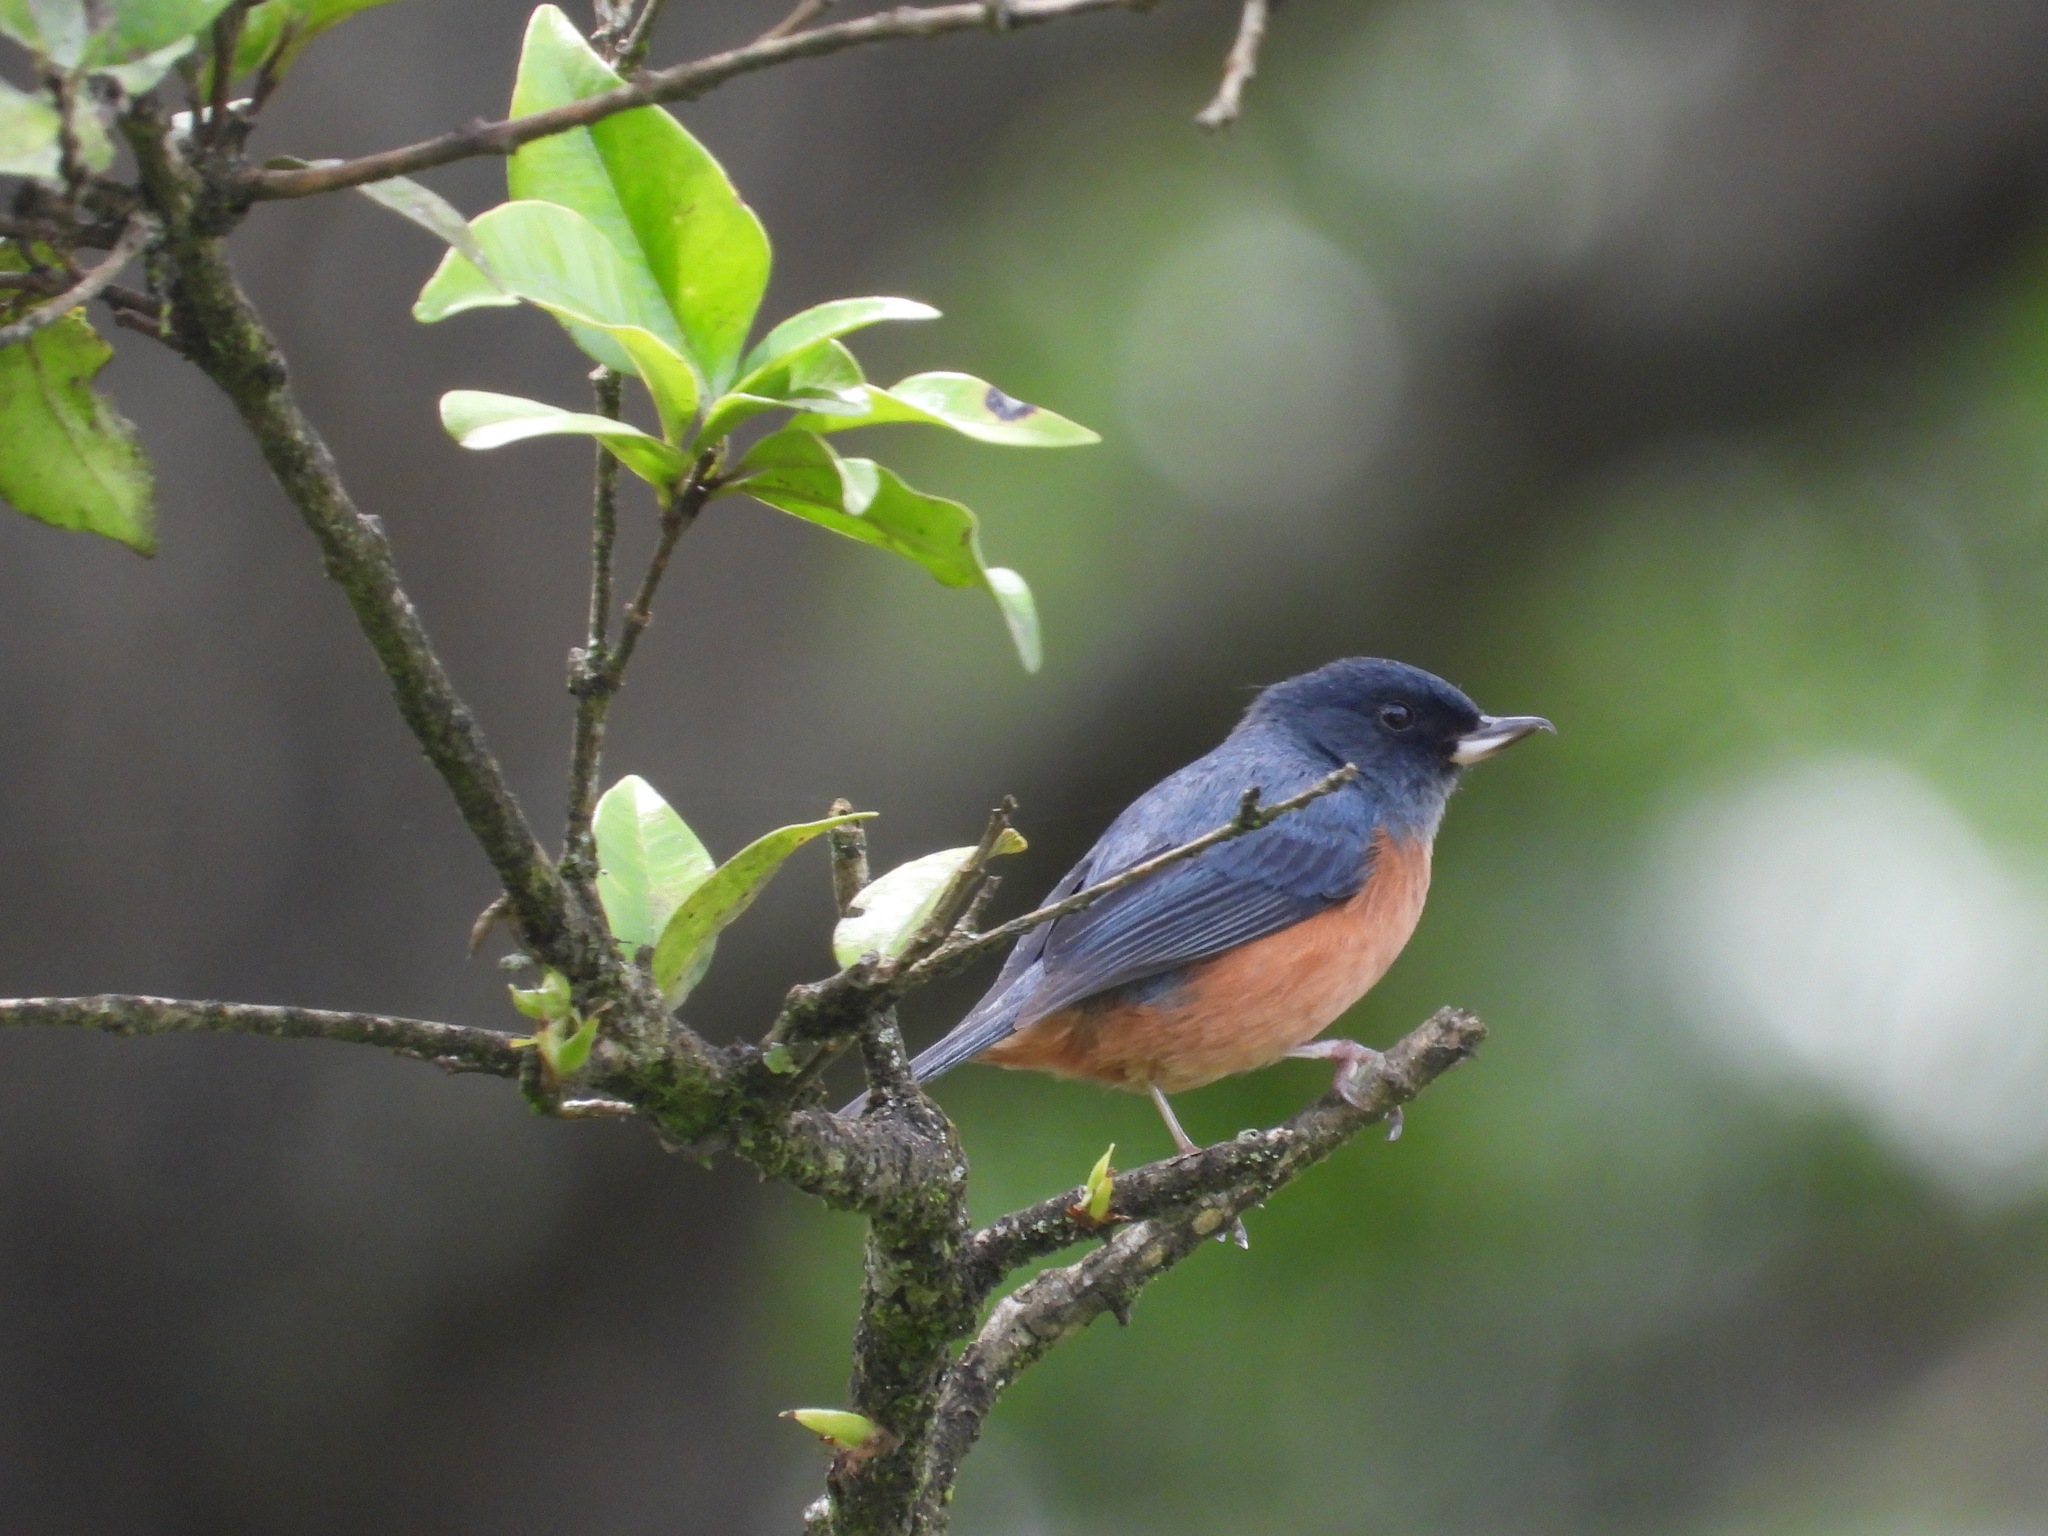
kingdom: Animalia
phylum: Chordata
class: Aves
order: Passeriformes
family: Thraupidae
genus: Diglossa
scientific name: Diglossa baritula
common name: Cinnamon-bellied flowerpiercer
